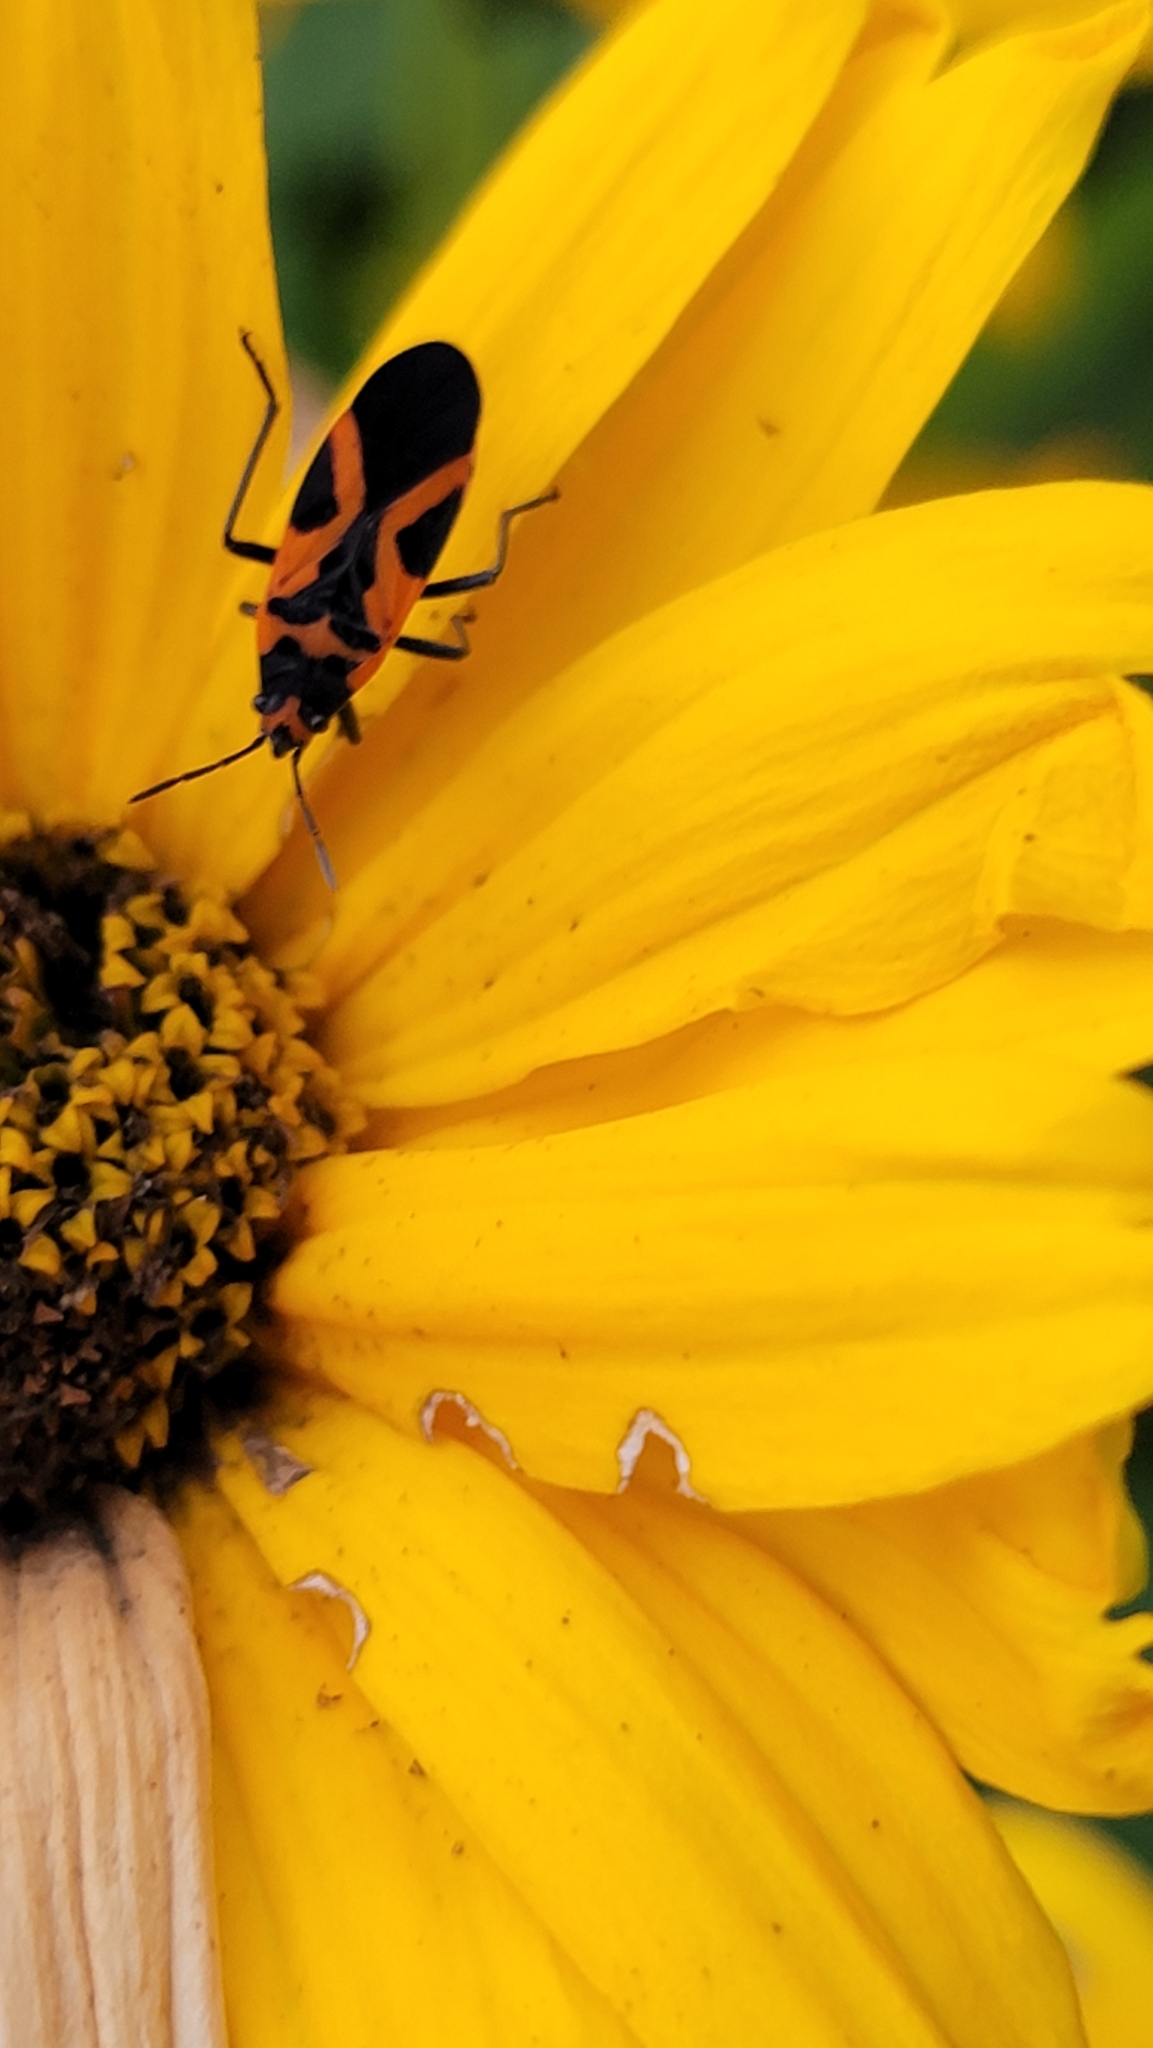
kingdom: Animalia
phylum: Arthropoda
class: Insecta
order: Hemiptera
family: Lygaeidae
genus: Lygaeus
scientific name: Lygaeus turcicus
